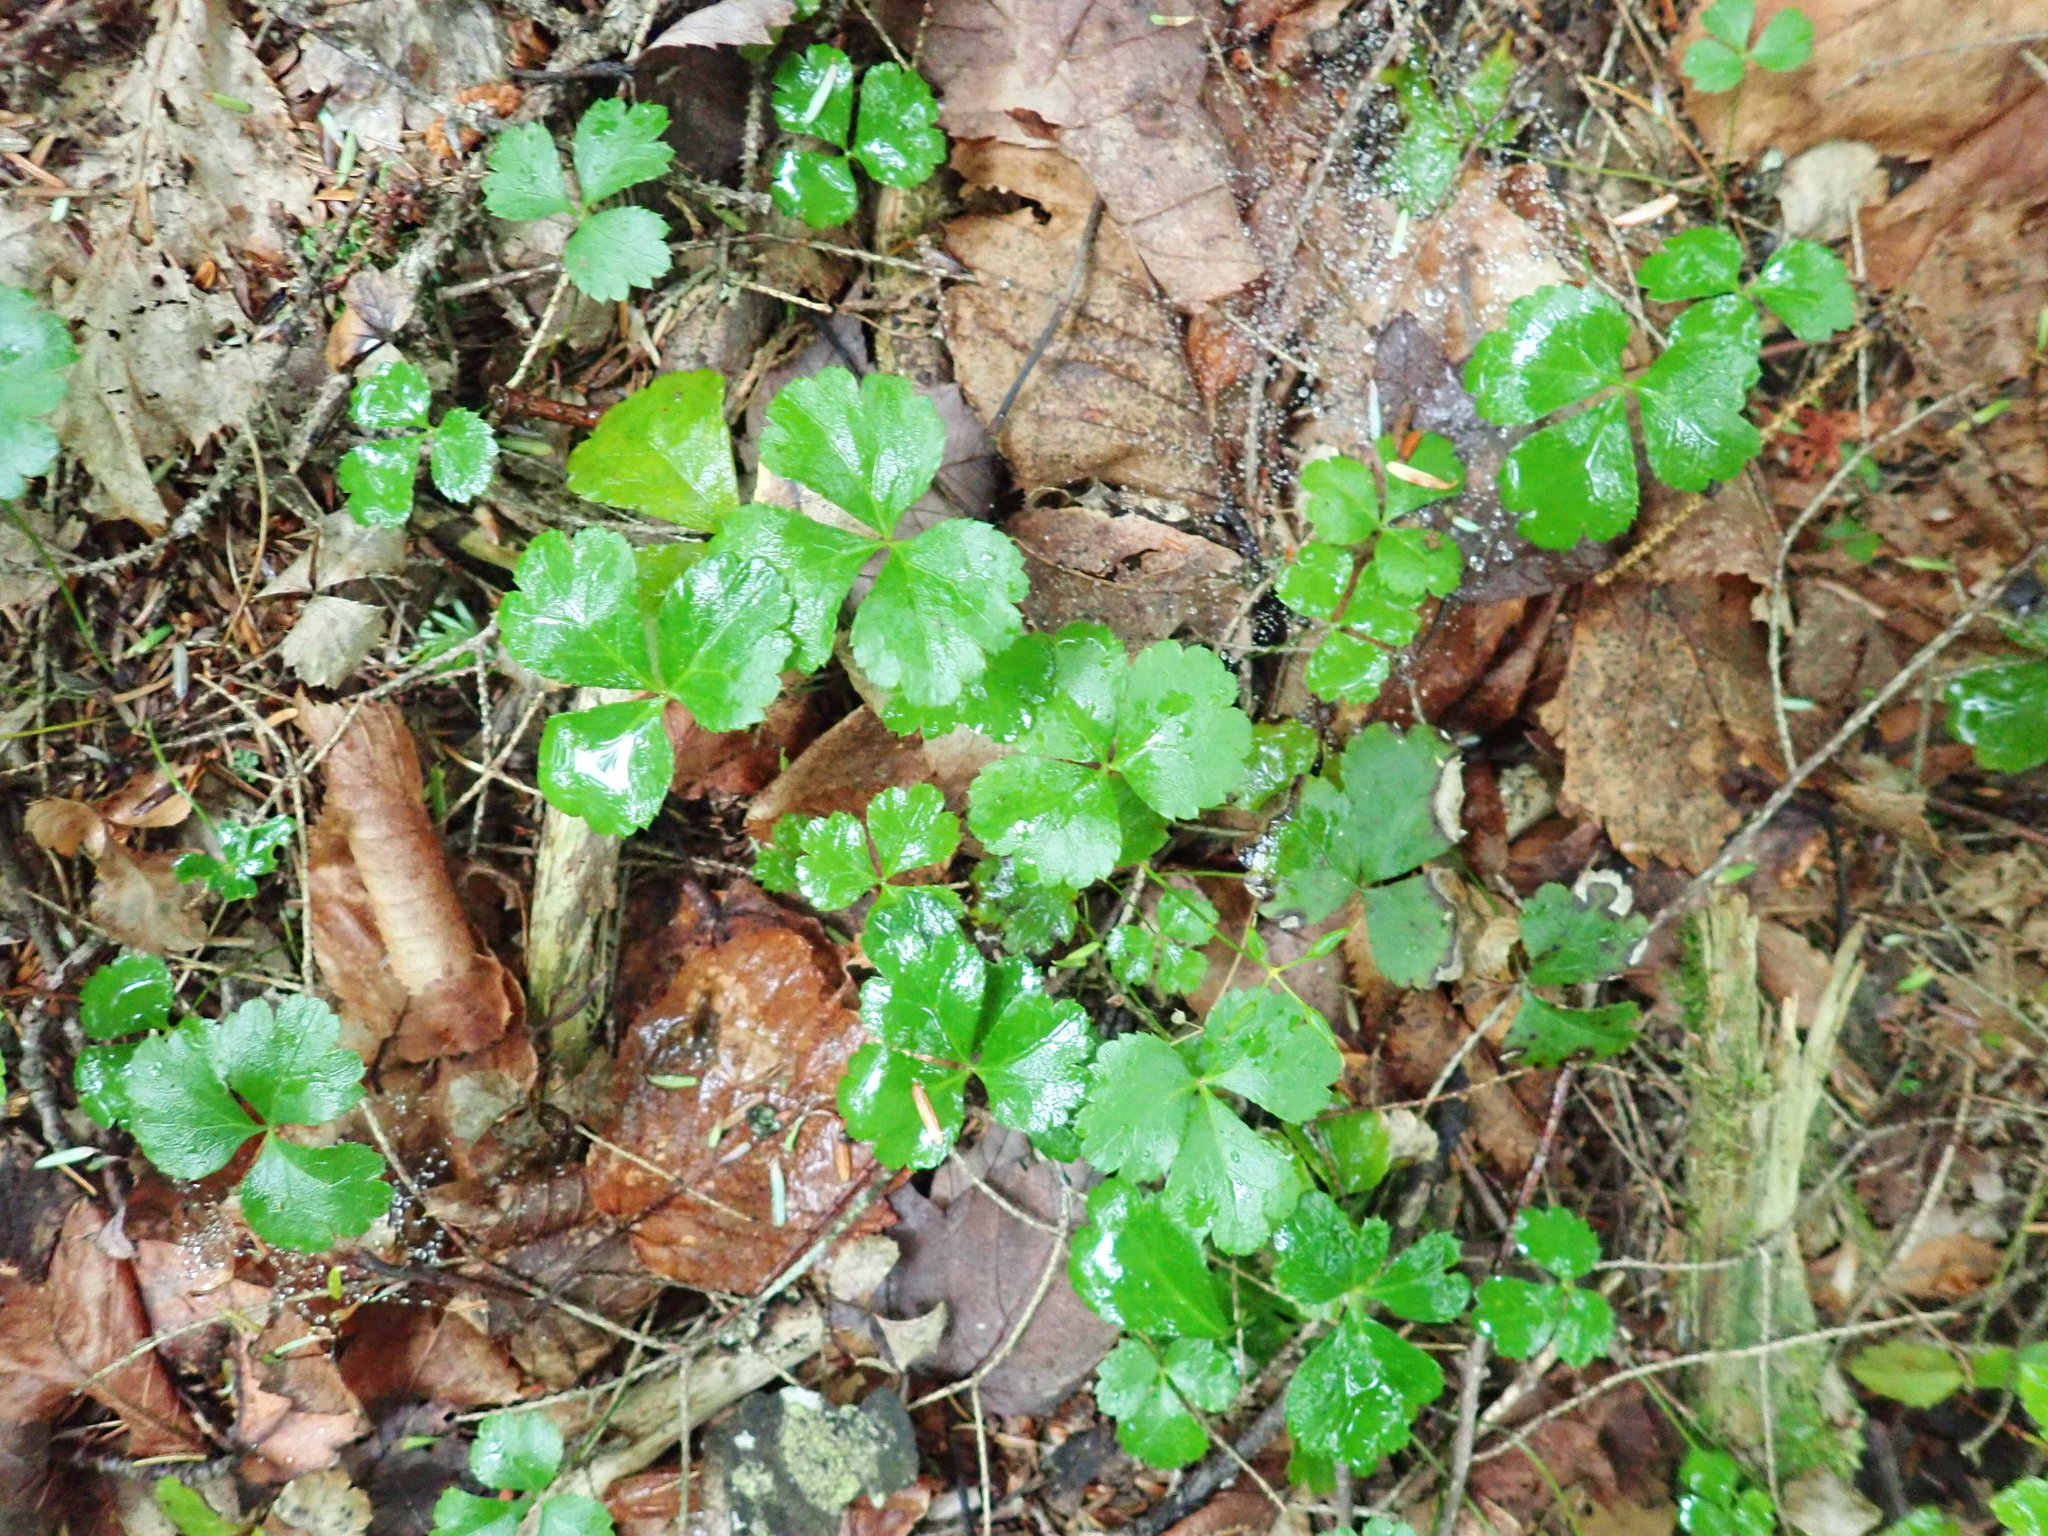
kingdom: Plantae
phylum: Tracheophyta
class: Magnoliopsida
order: Ranunculales
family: Ranunculaceae
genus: Coptis
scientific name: Coptis trifolia
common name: Canker-root
